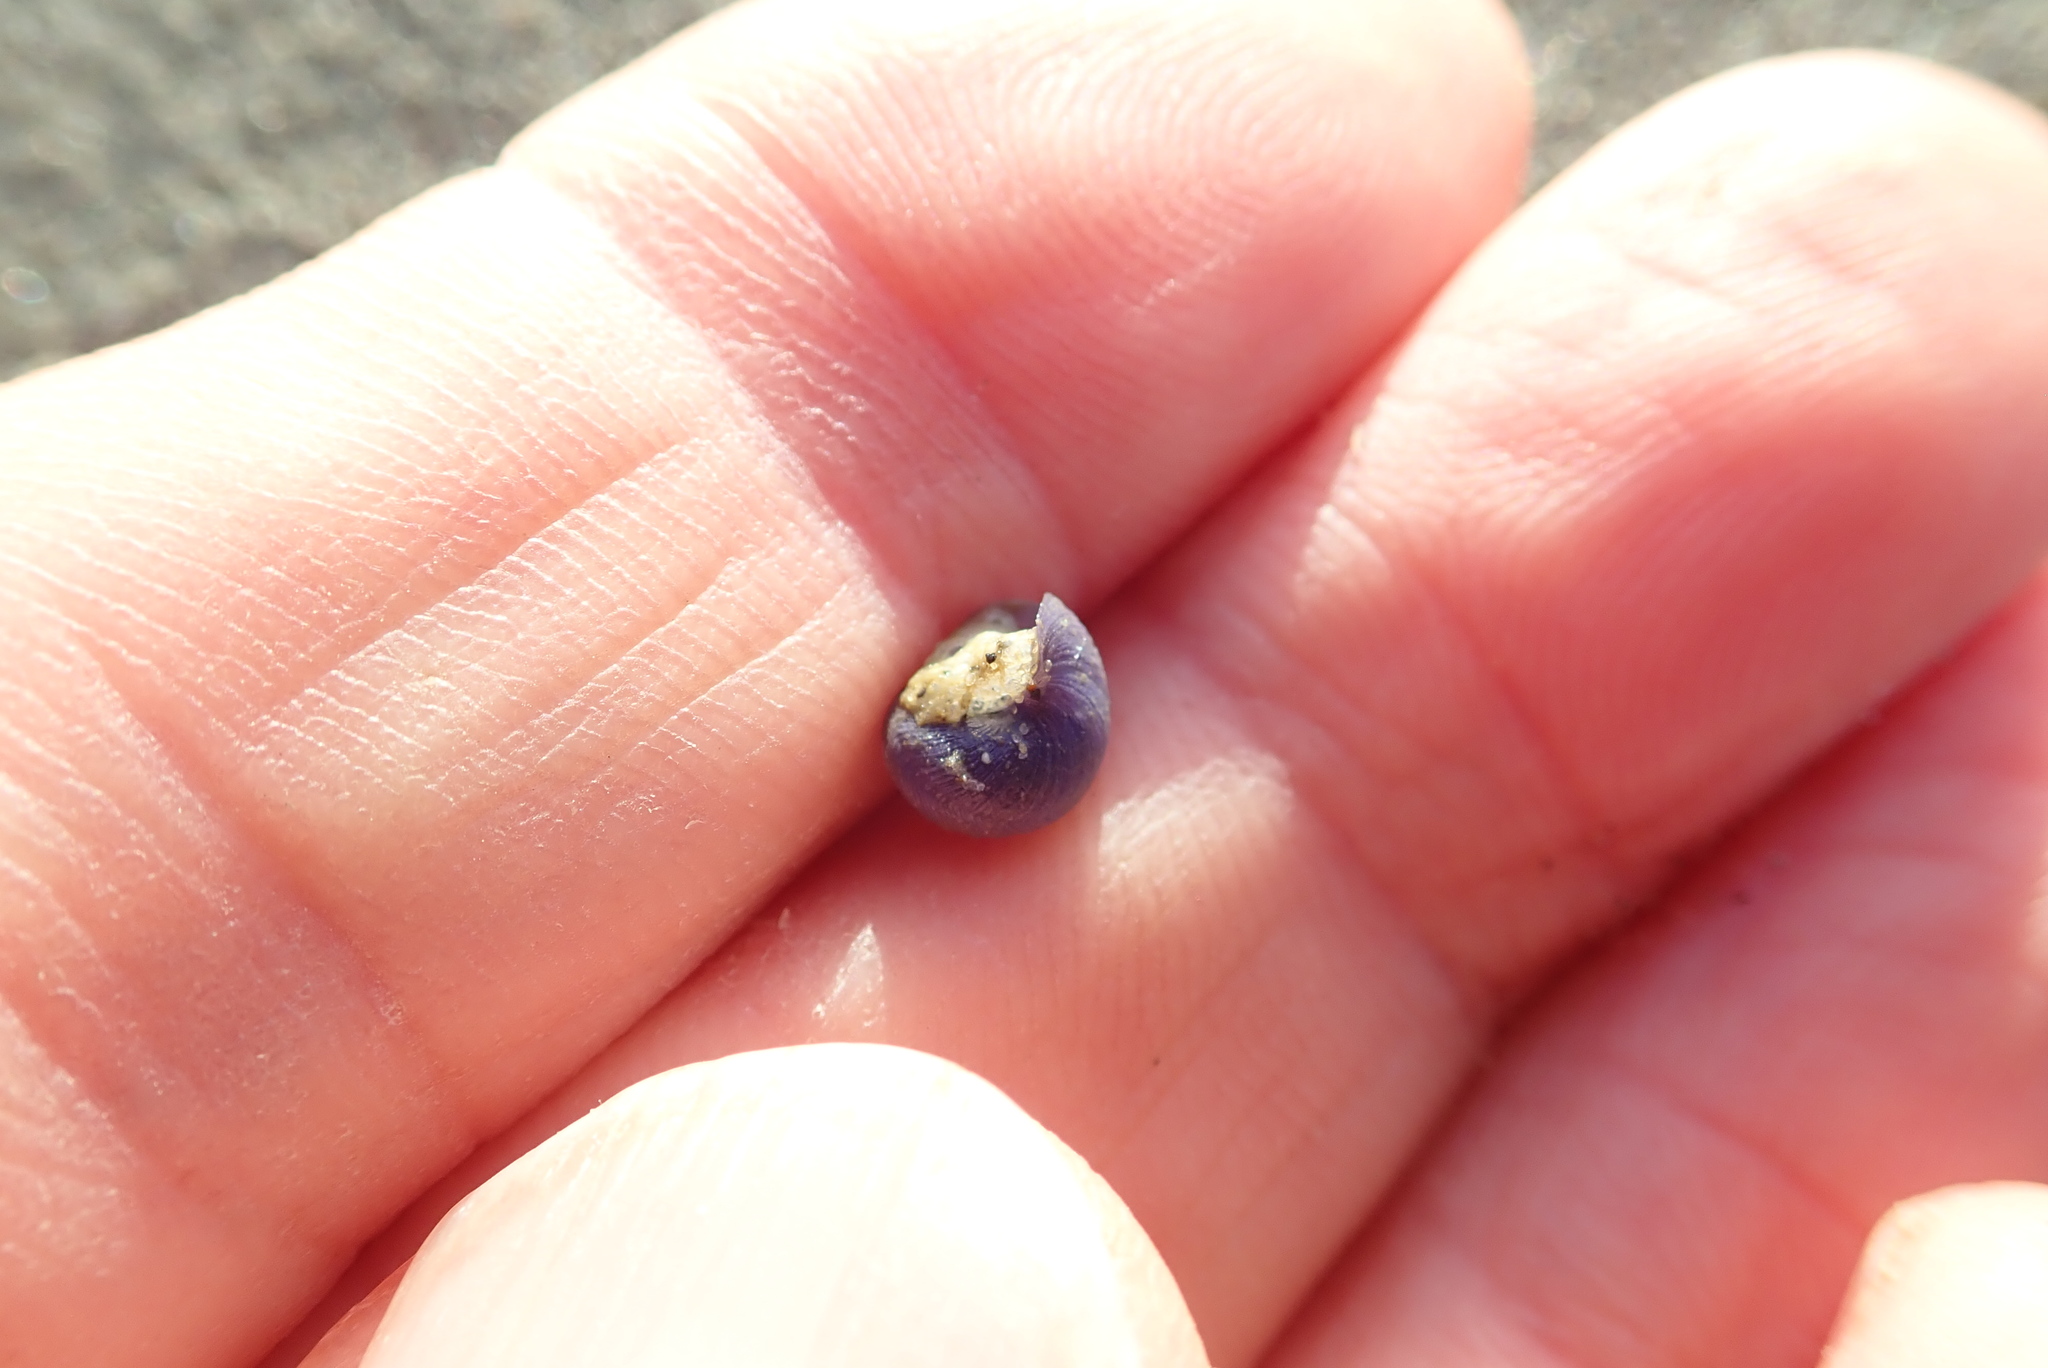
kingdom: Animalia
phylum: Mollusca
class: Gastropoda
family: Epitoniidae
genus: Janthina
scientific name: Janthina exigua
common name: Dwarf janthina
